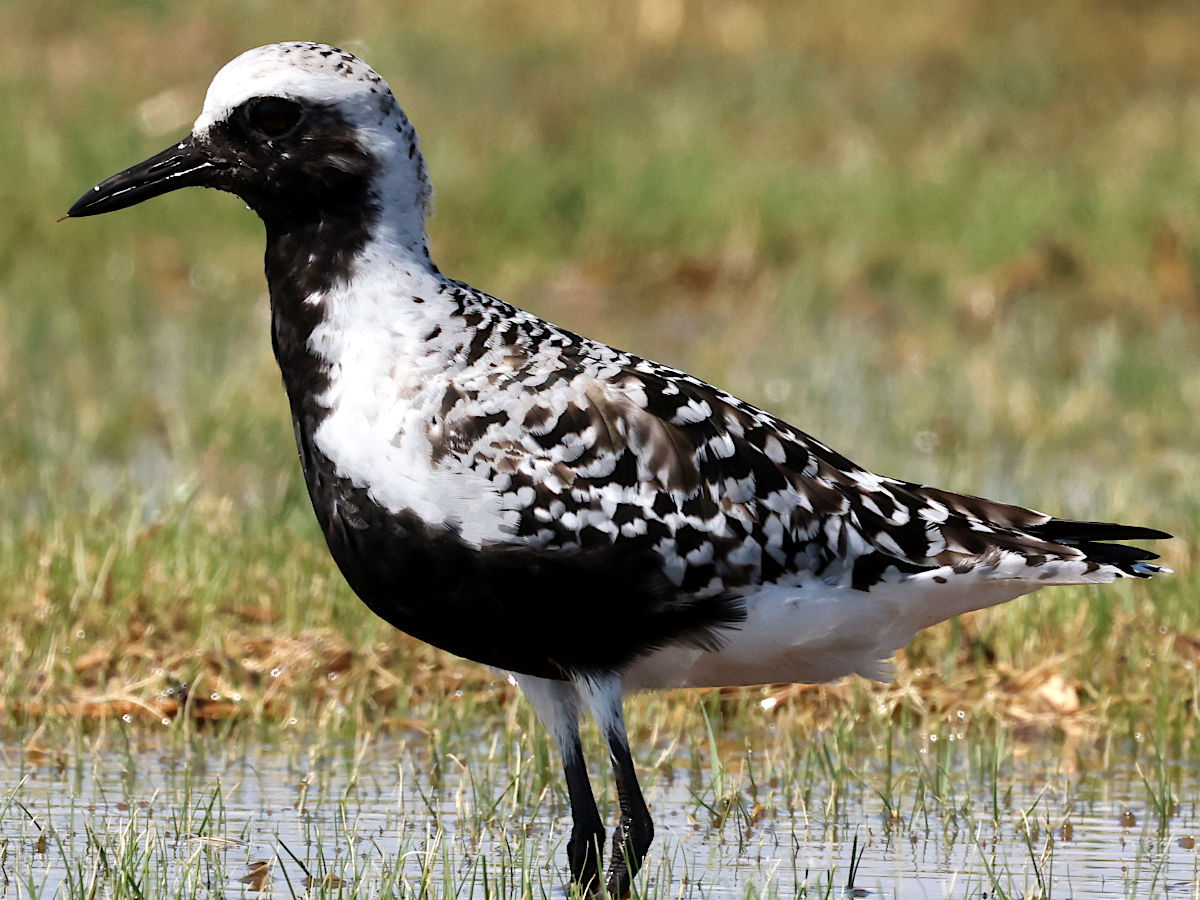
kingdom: Animalia
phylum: Chordata
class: Aves
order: Charadriiformes
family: Charadriidae
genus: Pluvialis
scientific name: Pluvialis squatarola
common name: Grey plover
